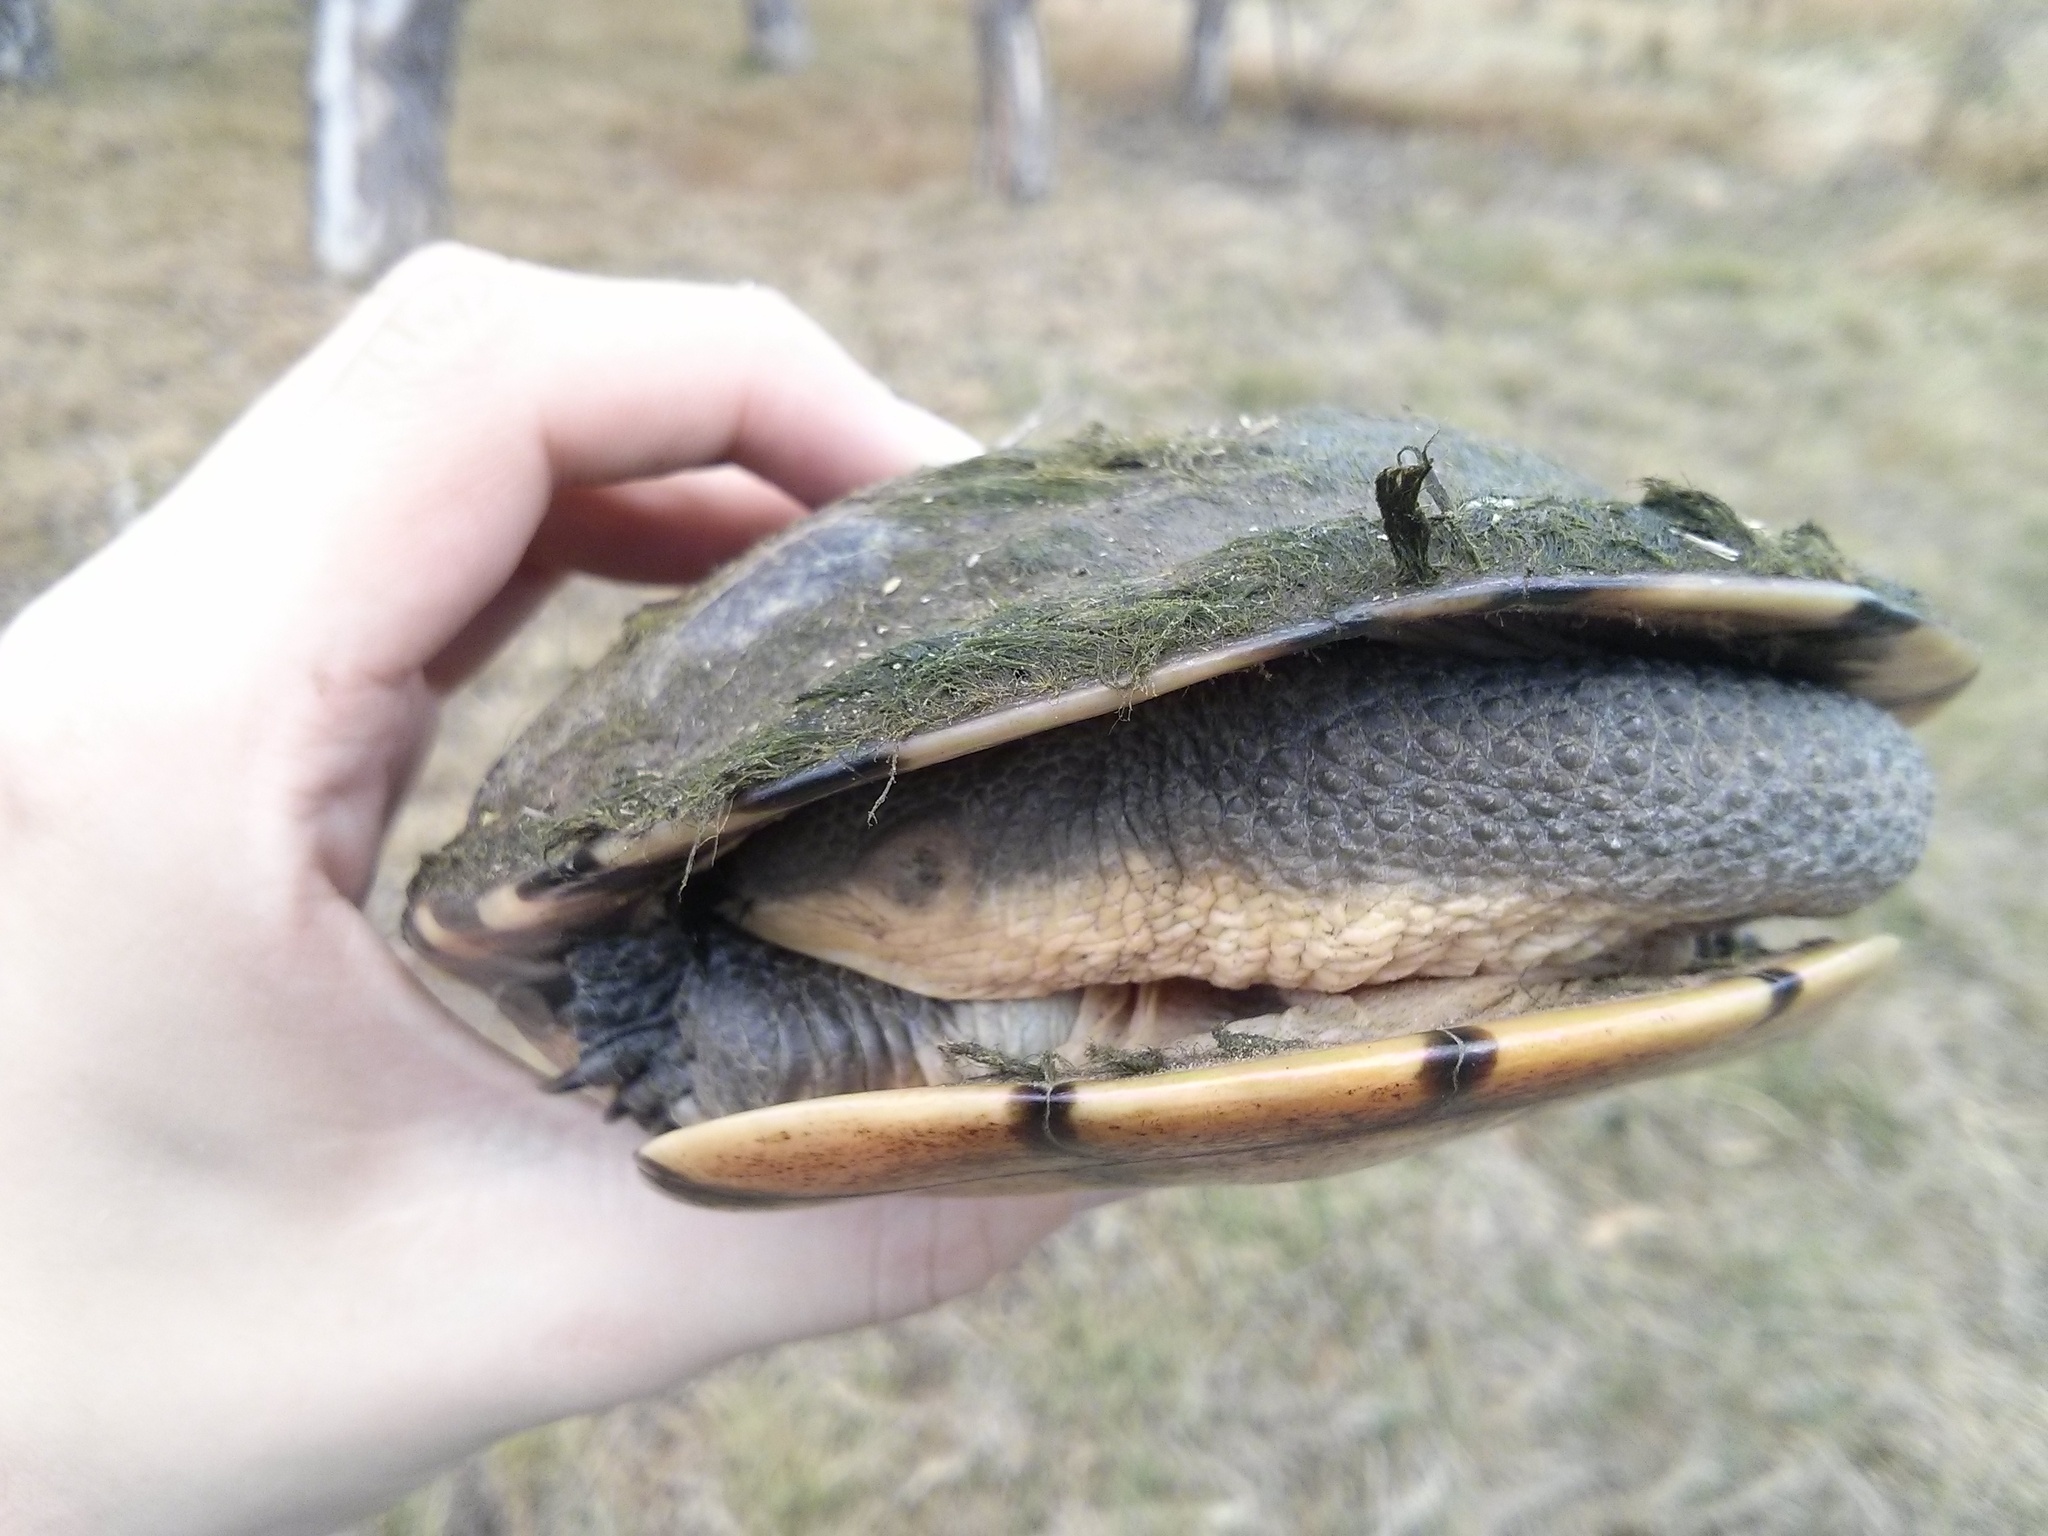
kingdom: Animalia
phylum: Chordata
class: Testudines
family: Chelidae
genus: Chelodina
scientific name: Chelodina longicollis
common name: Eastern snake-necked turtle
